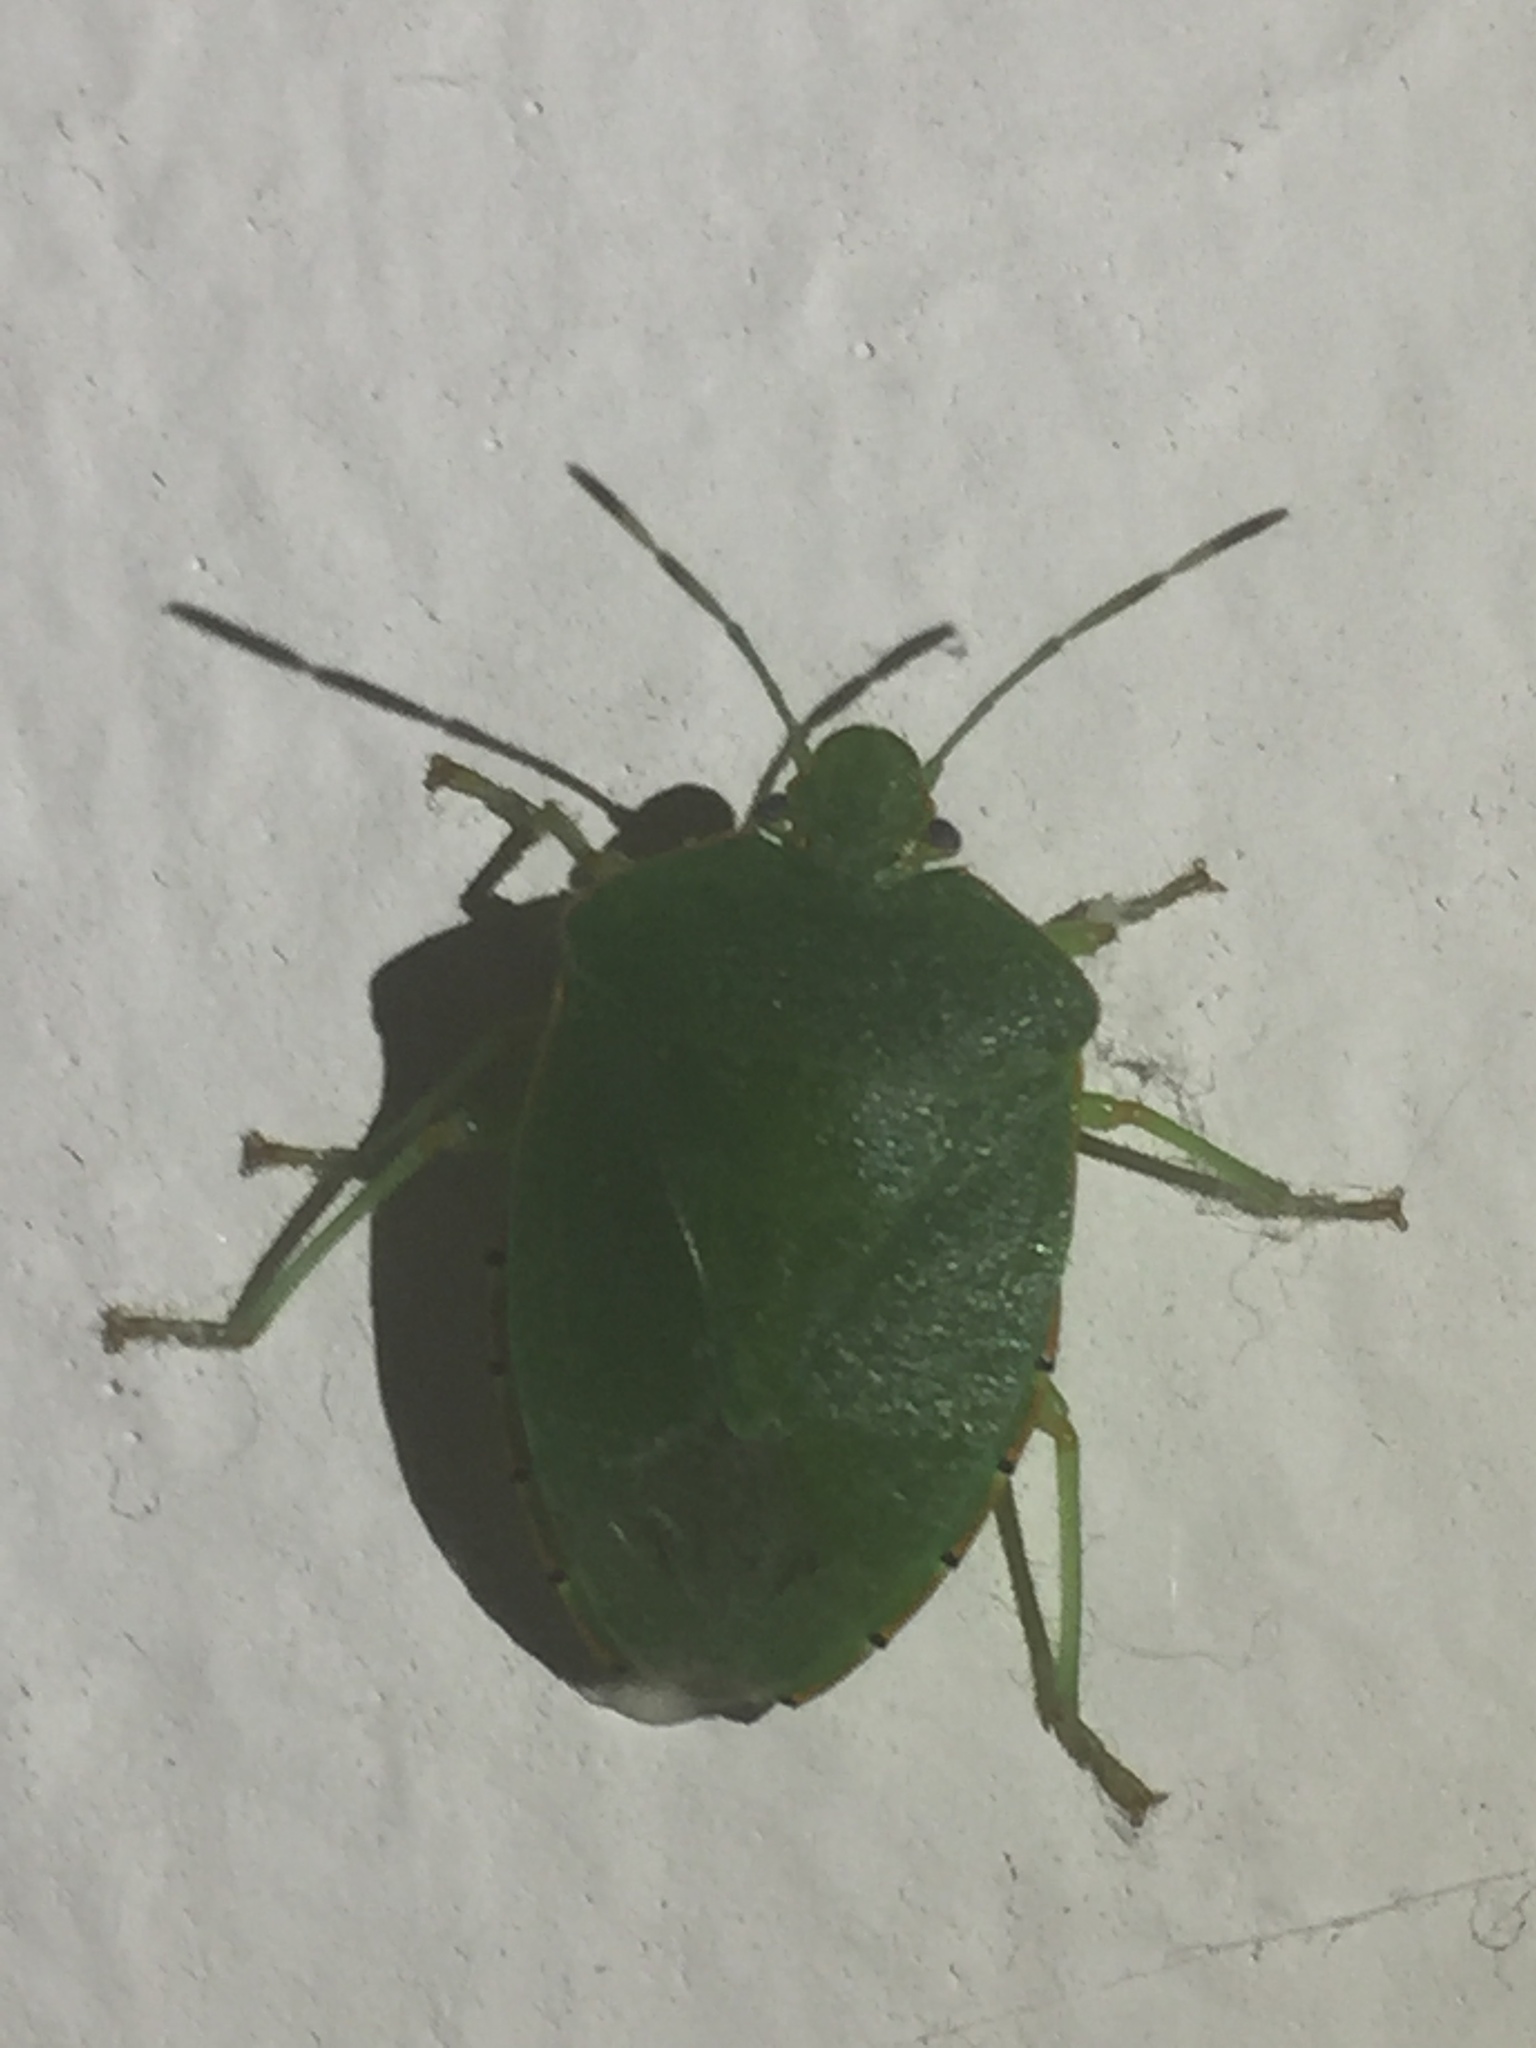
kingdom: Animalia
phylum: Arthropoda
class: Insecta
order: Hemiptera
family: Pentatomidae
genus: Chinavia
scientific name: Chinavia hilaris
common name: Green stink bug
